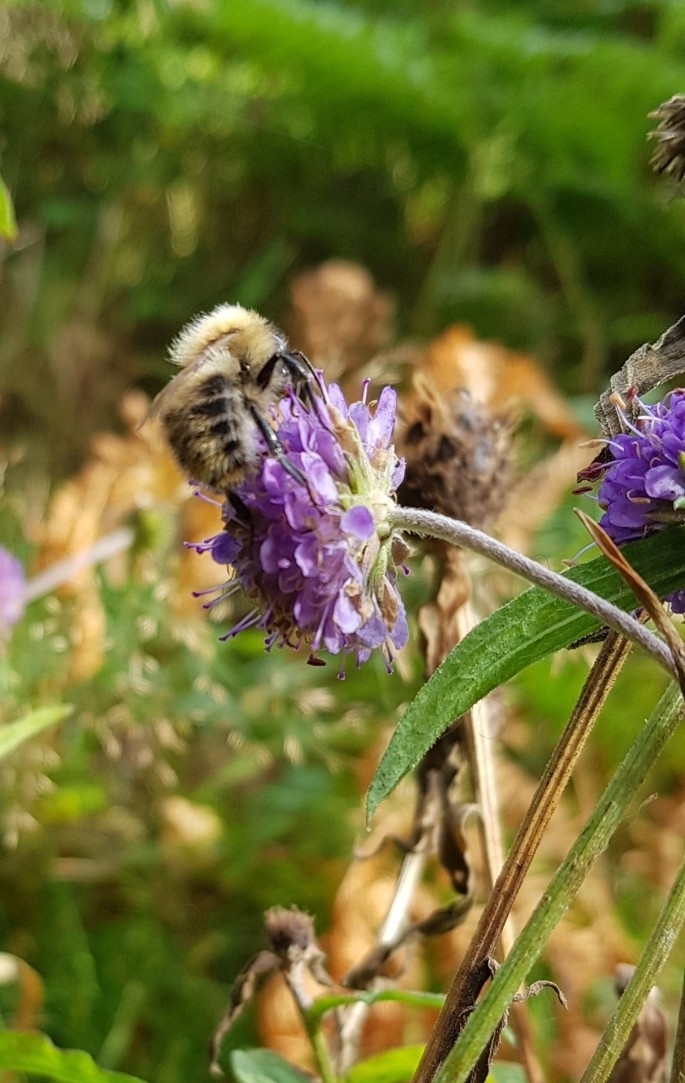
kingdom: Animalia
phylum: Arthropoda
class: Insecta
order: Hymenoptera
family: Apidae
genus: Bombus
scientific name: Bombus pascuorum
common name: Common carder bee
